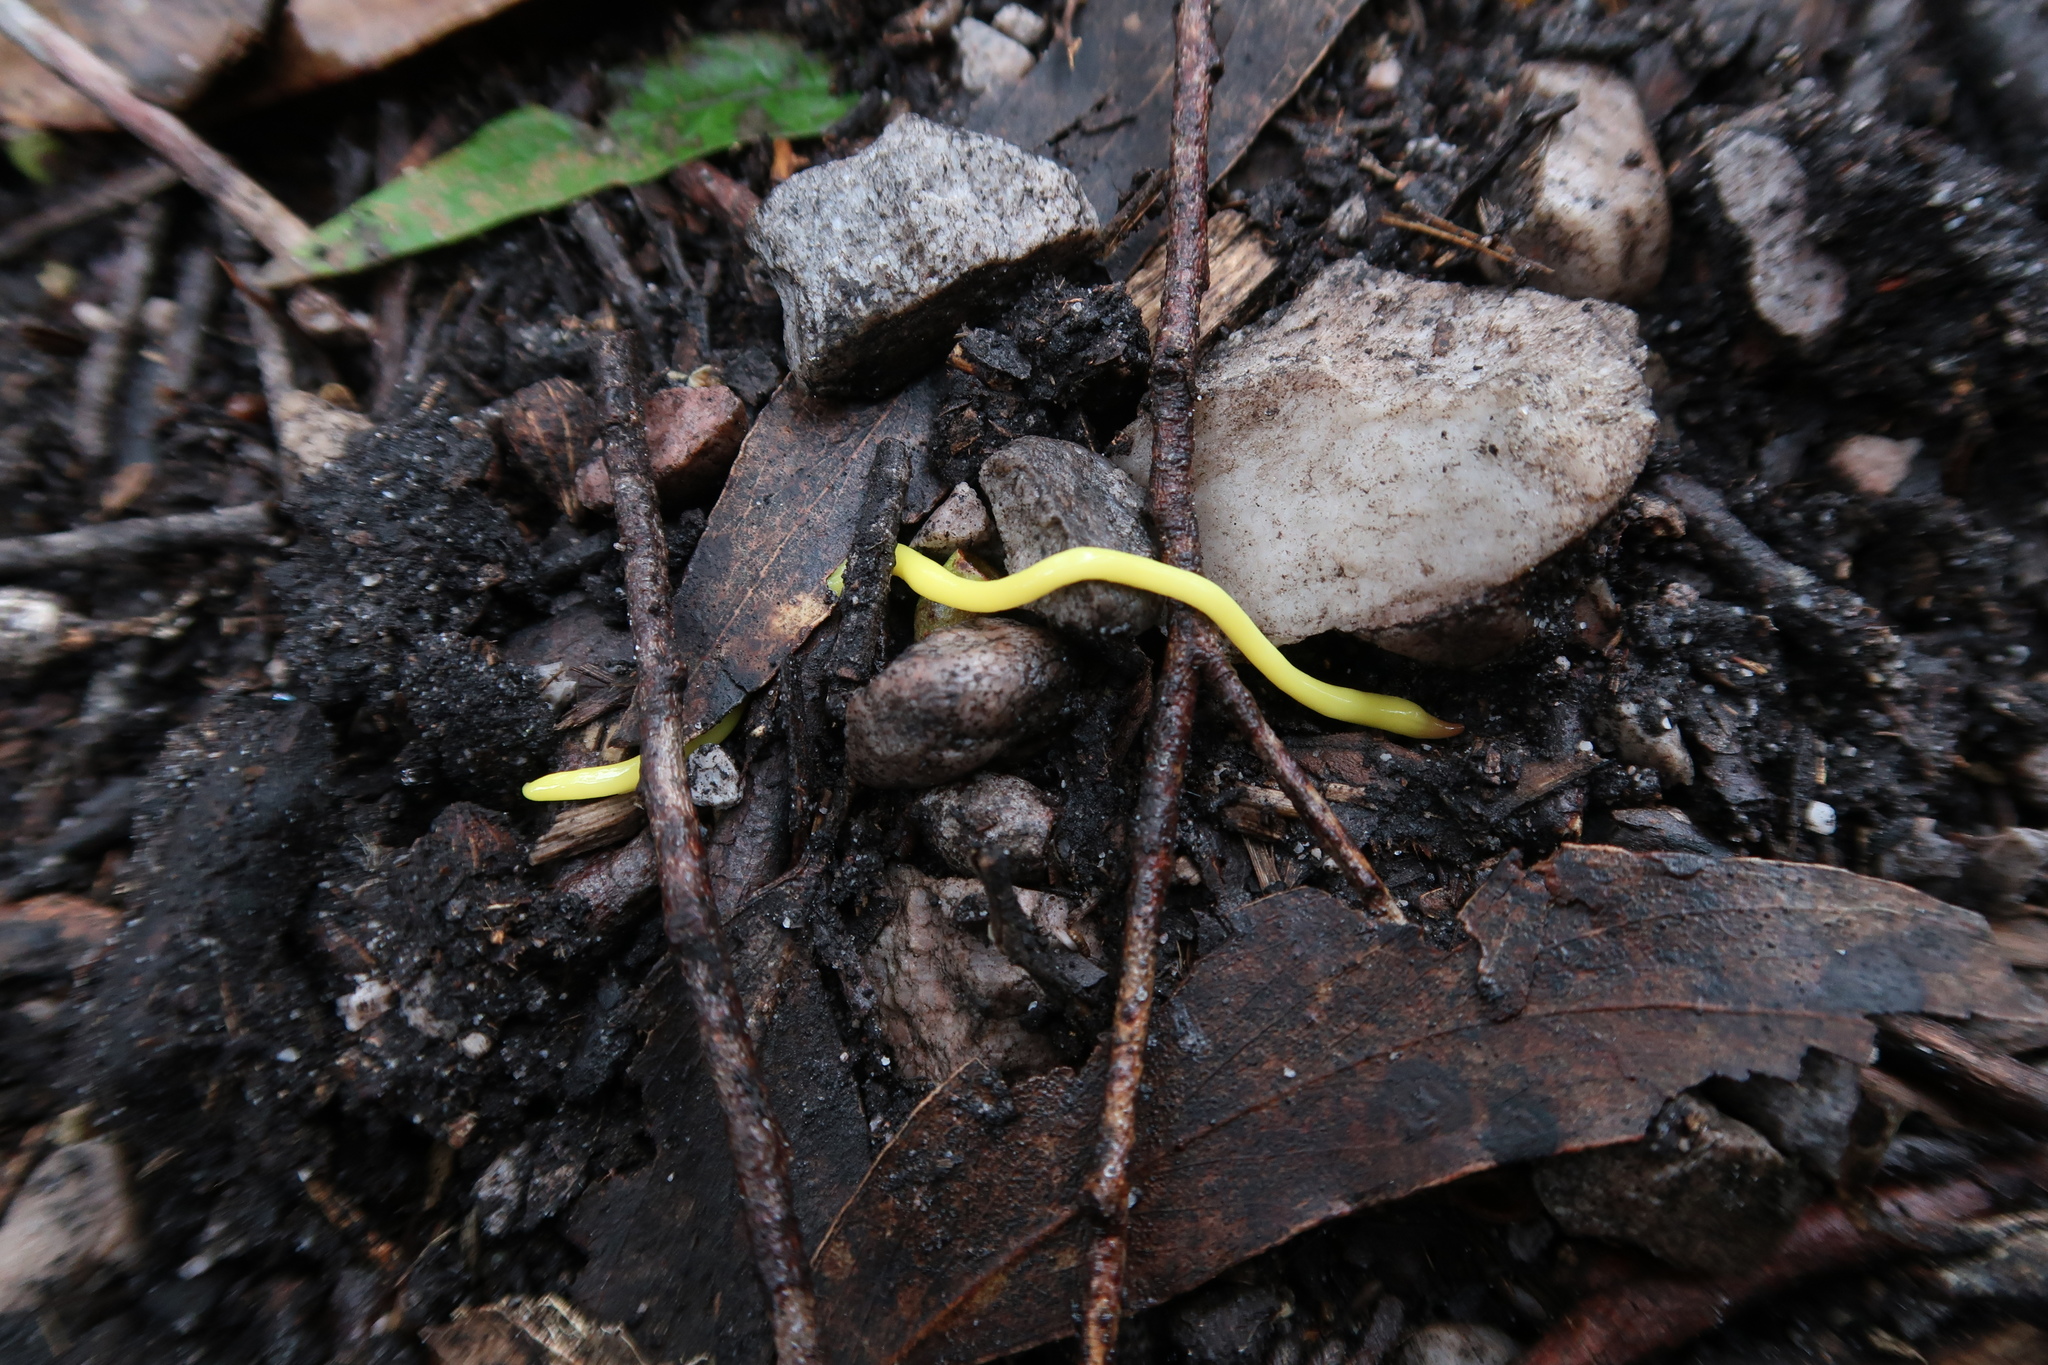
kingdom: Animalia
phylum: Platyhelminthes
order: Tricladida
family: Geoplanidae
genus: Fletchamia
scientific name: Fletchamia sugdeni
